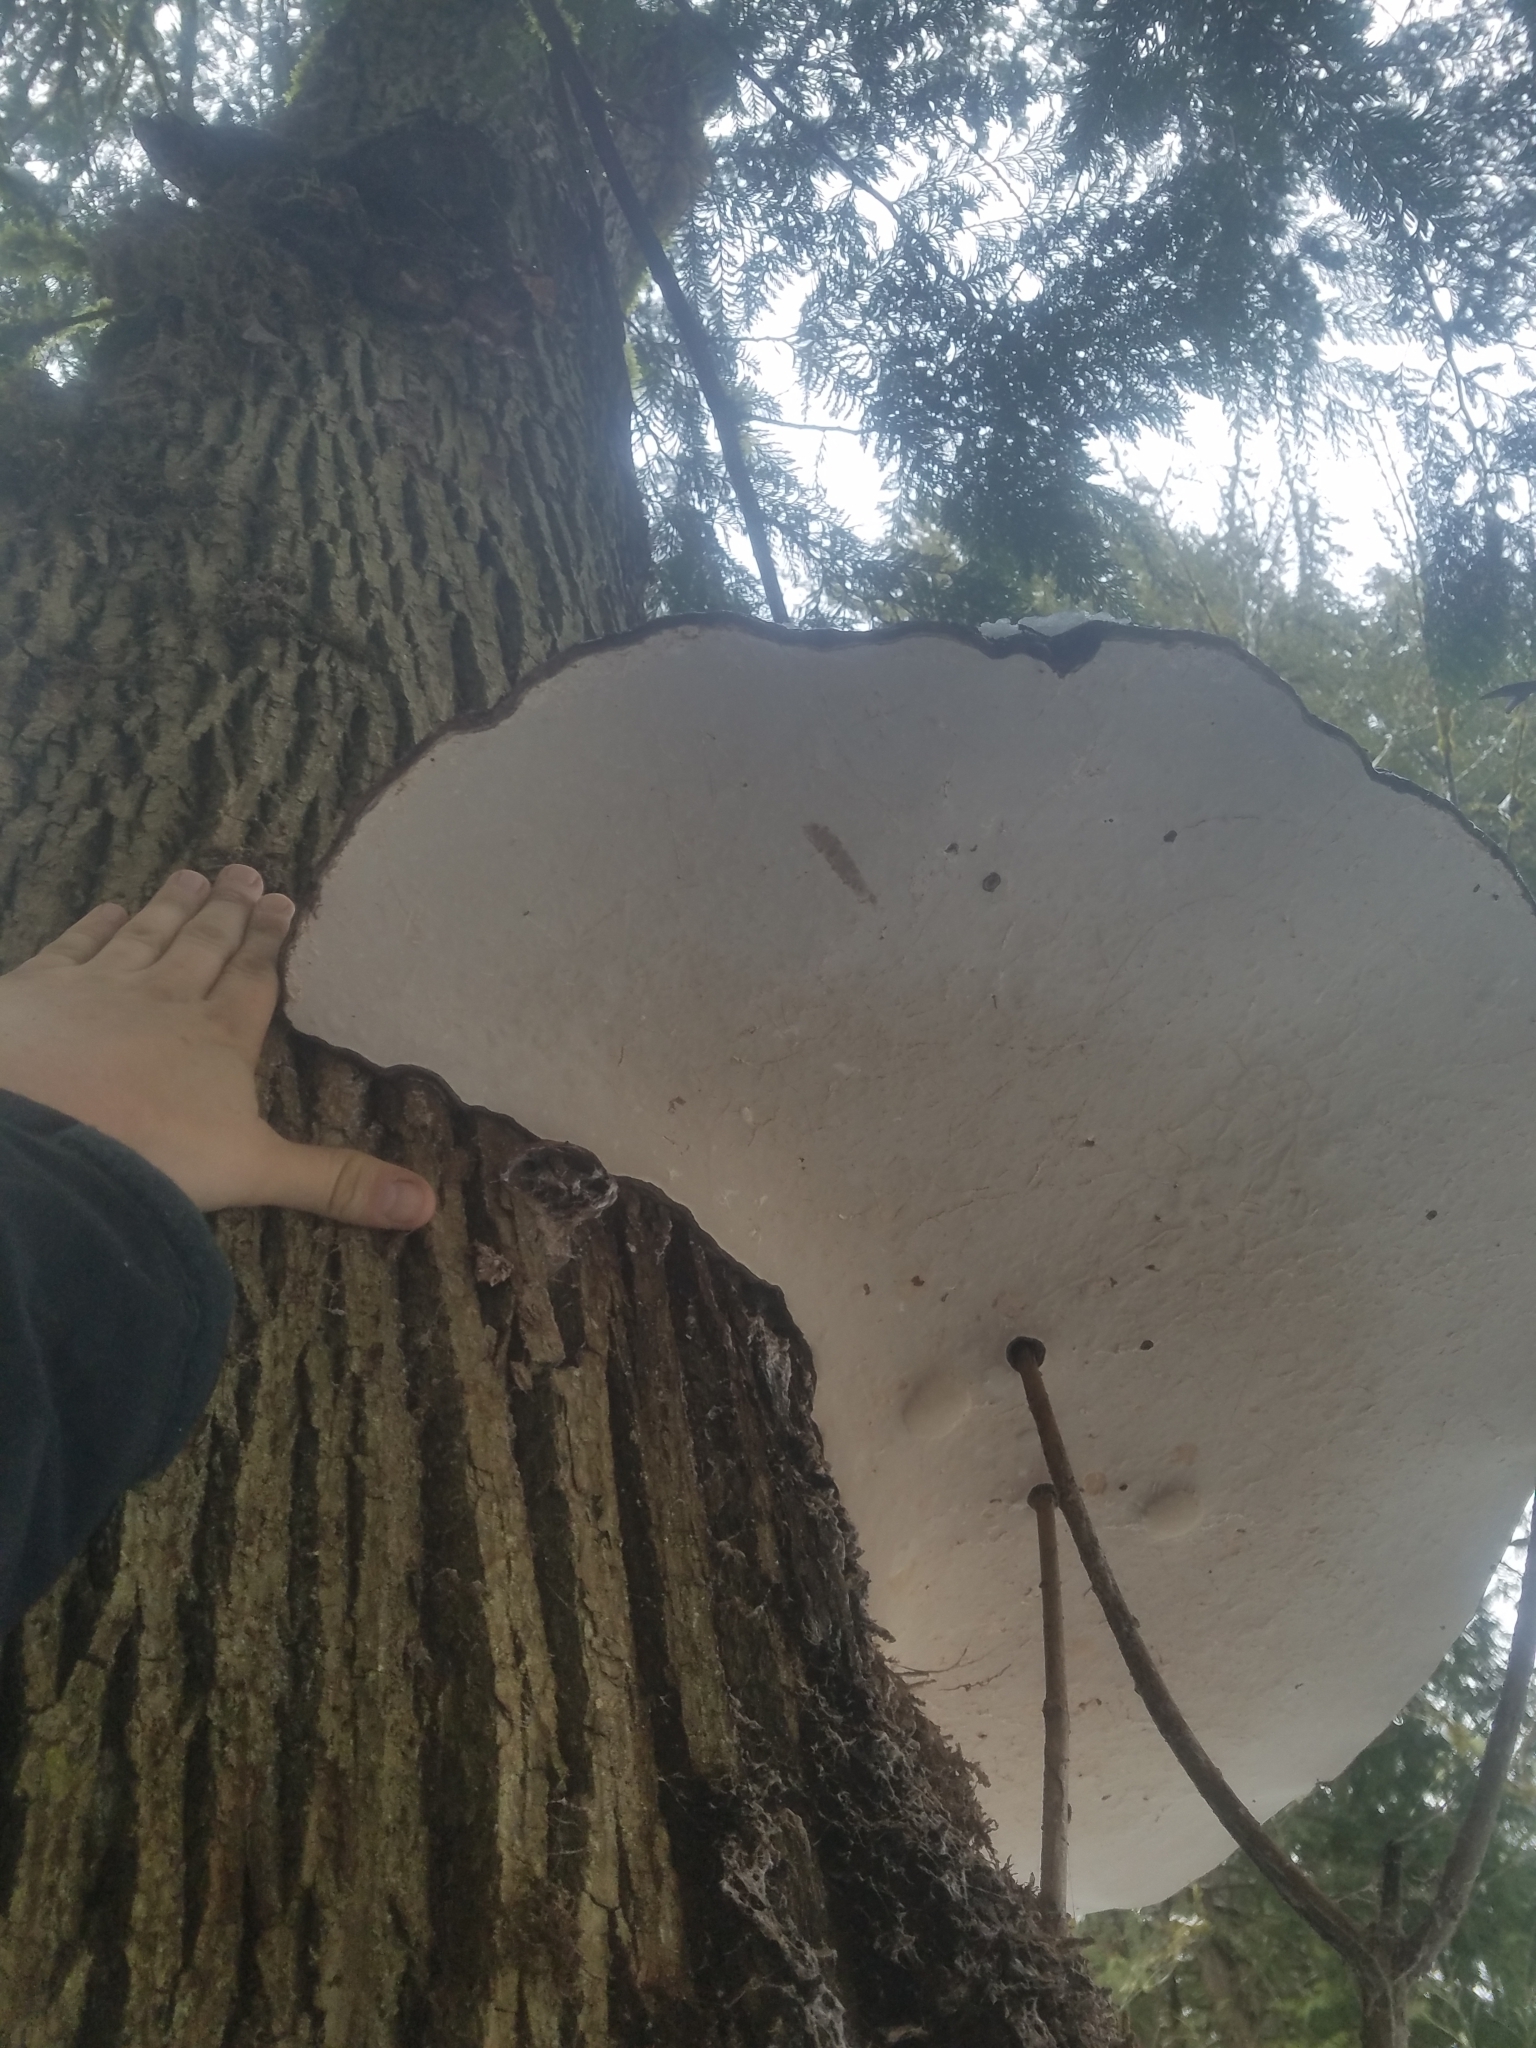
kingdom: Fungi
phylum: Basidiomycota
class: Agaricomycetes
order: Polyporales
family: Polyporaceae
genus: Ganoderma
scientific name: Ganoderma applanatum
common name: Artist's bracket
